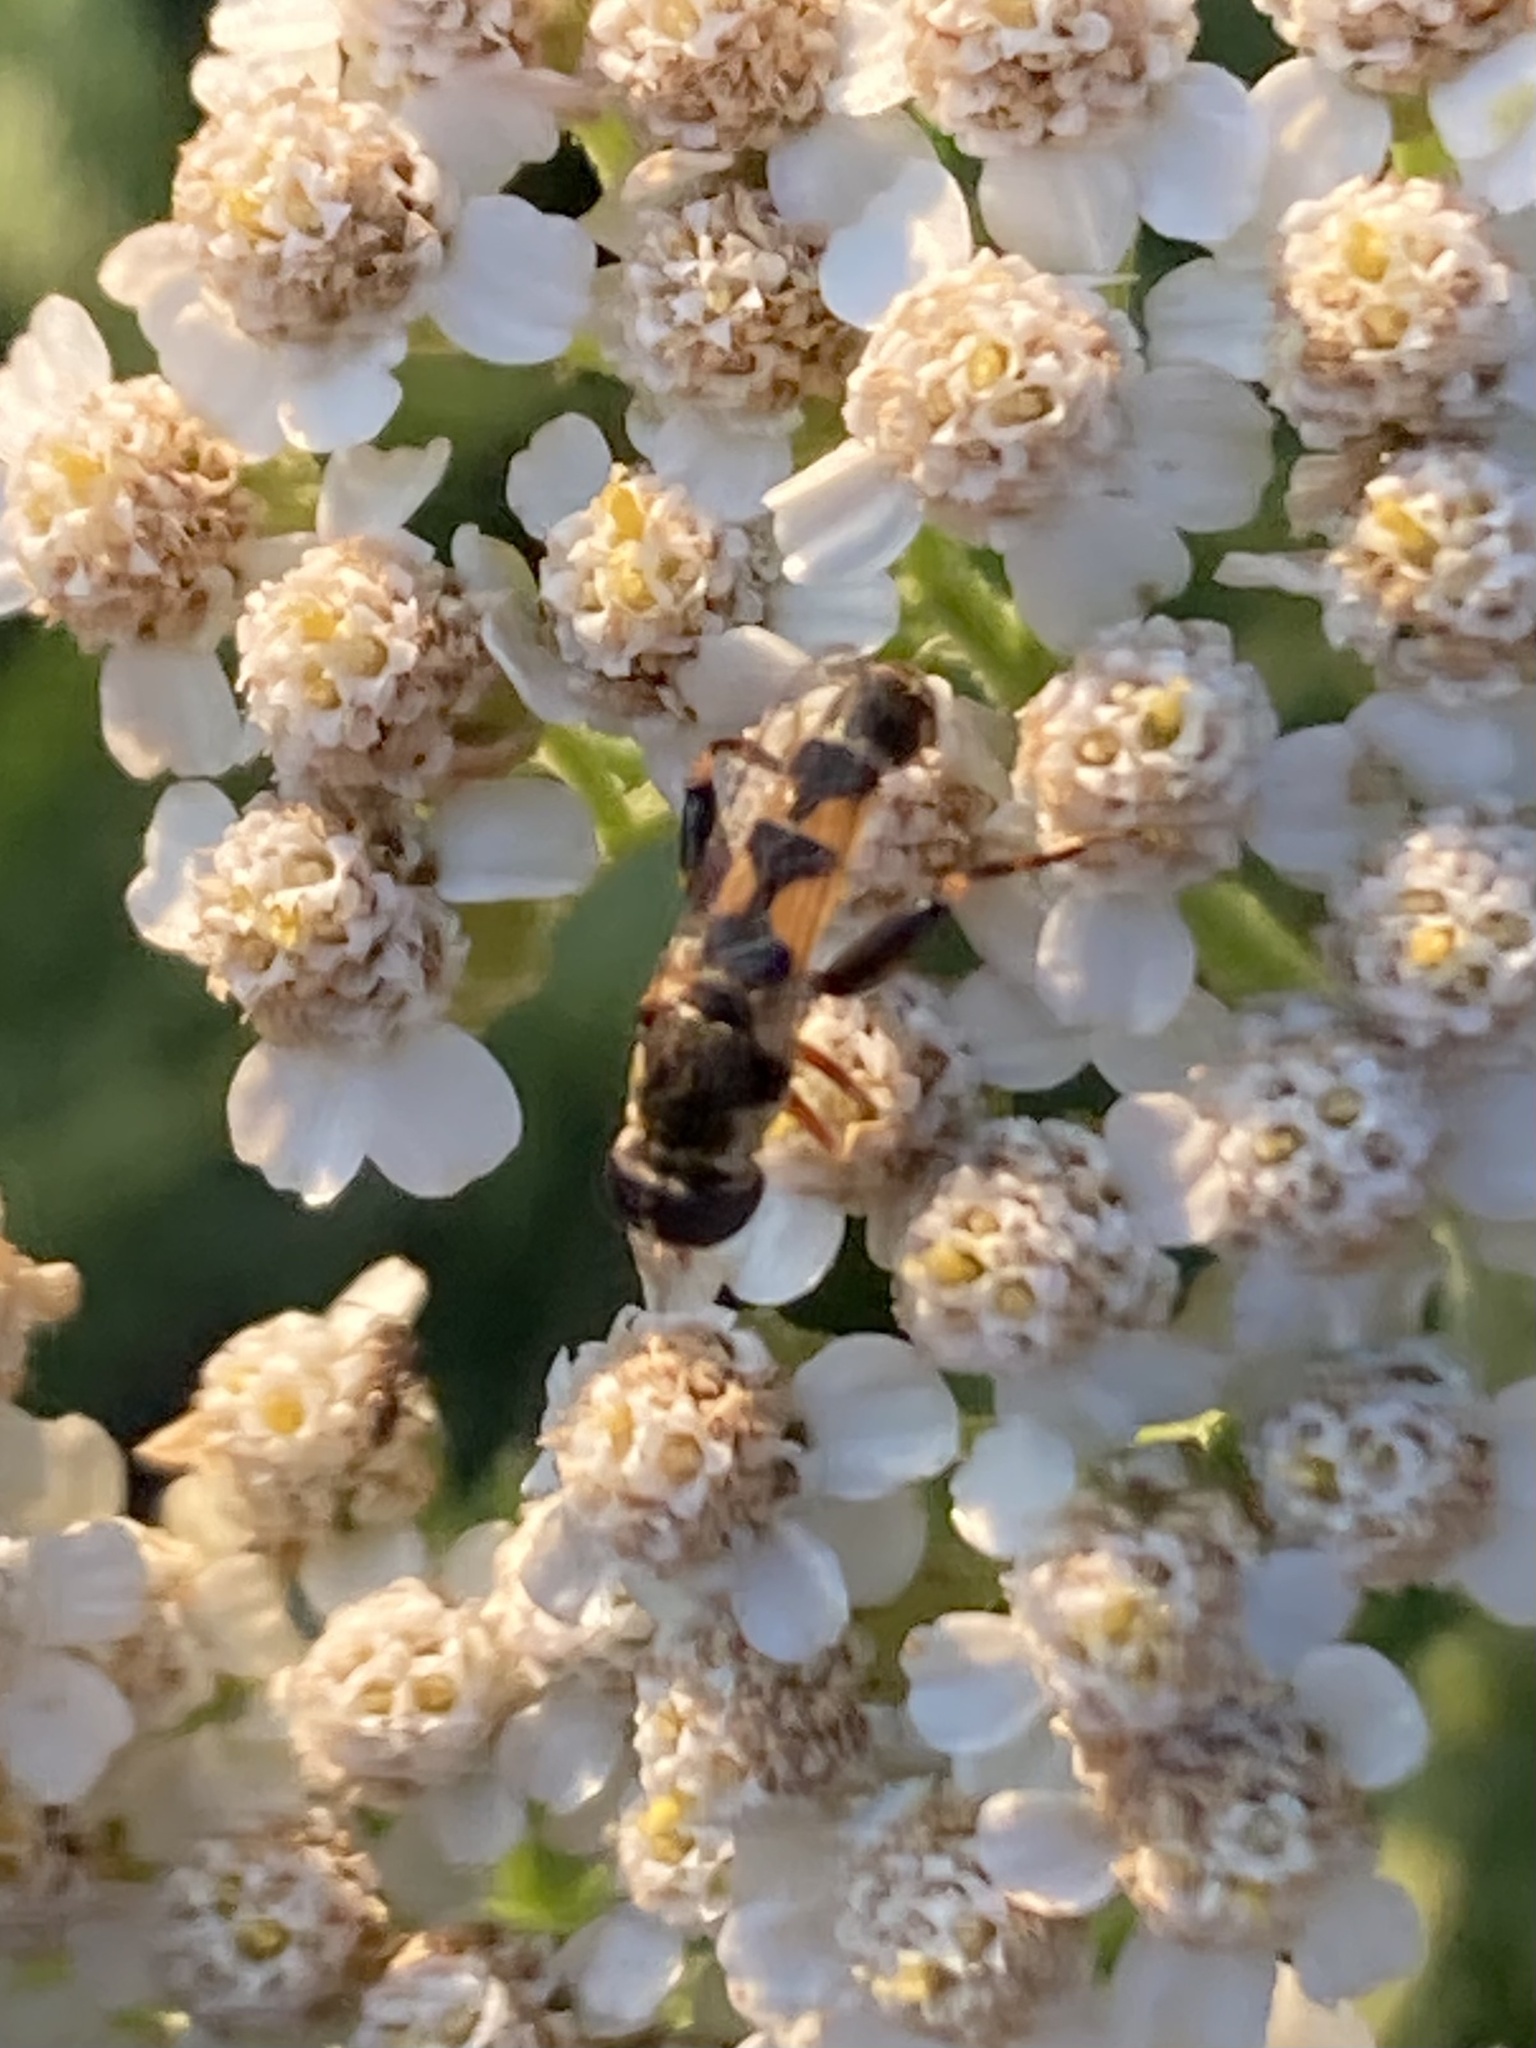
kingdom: Animalia
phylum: Arthropoda
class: Insecta
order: Diptera
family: Syrphidae
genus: Syritta
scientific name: Syritta pipiens
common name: Hover fly
